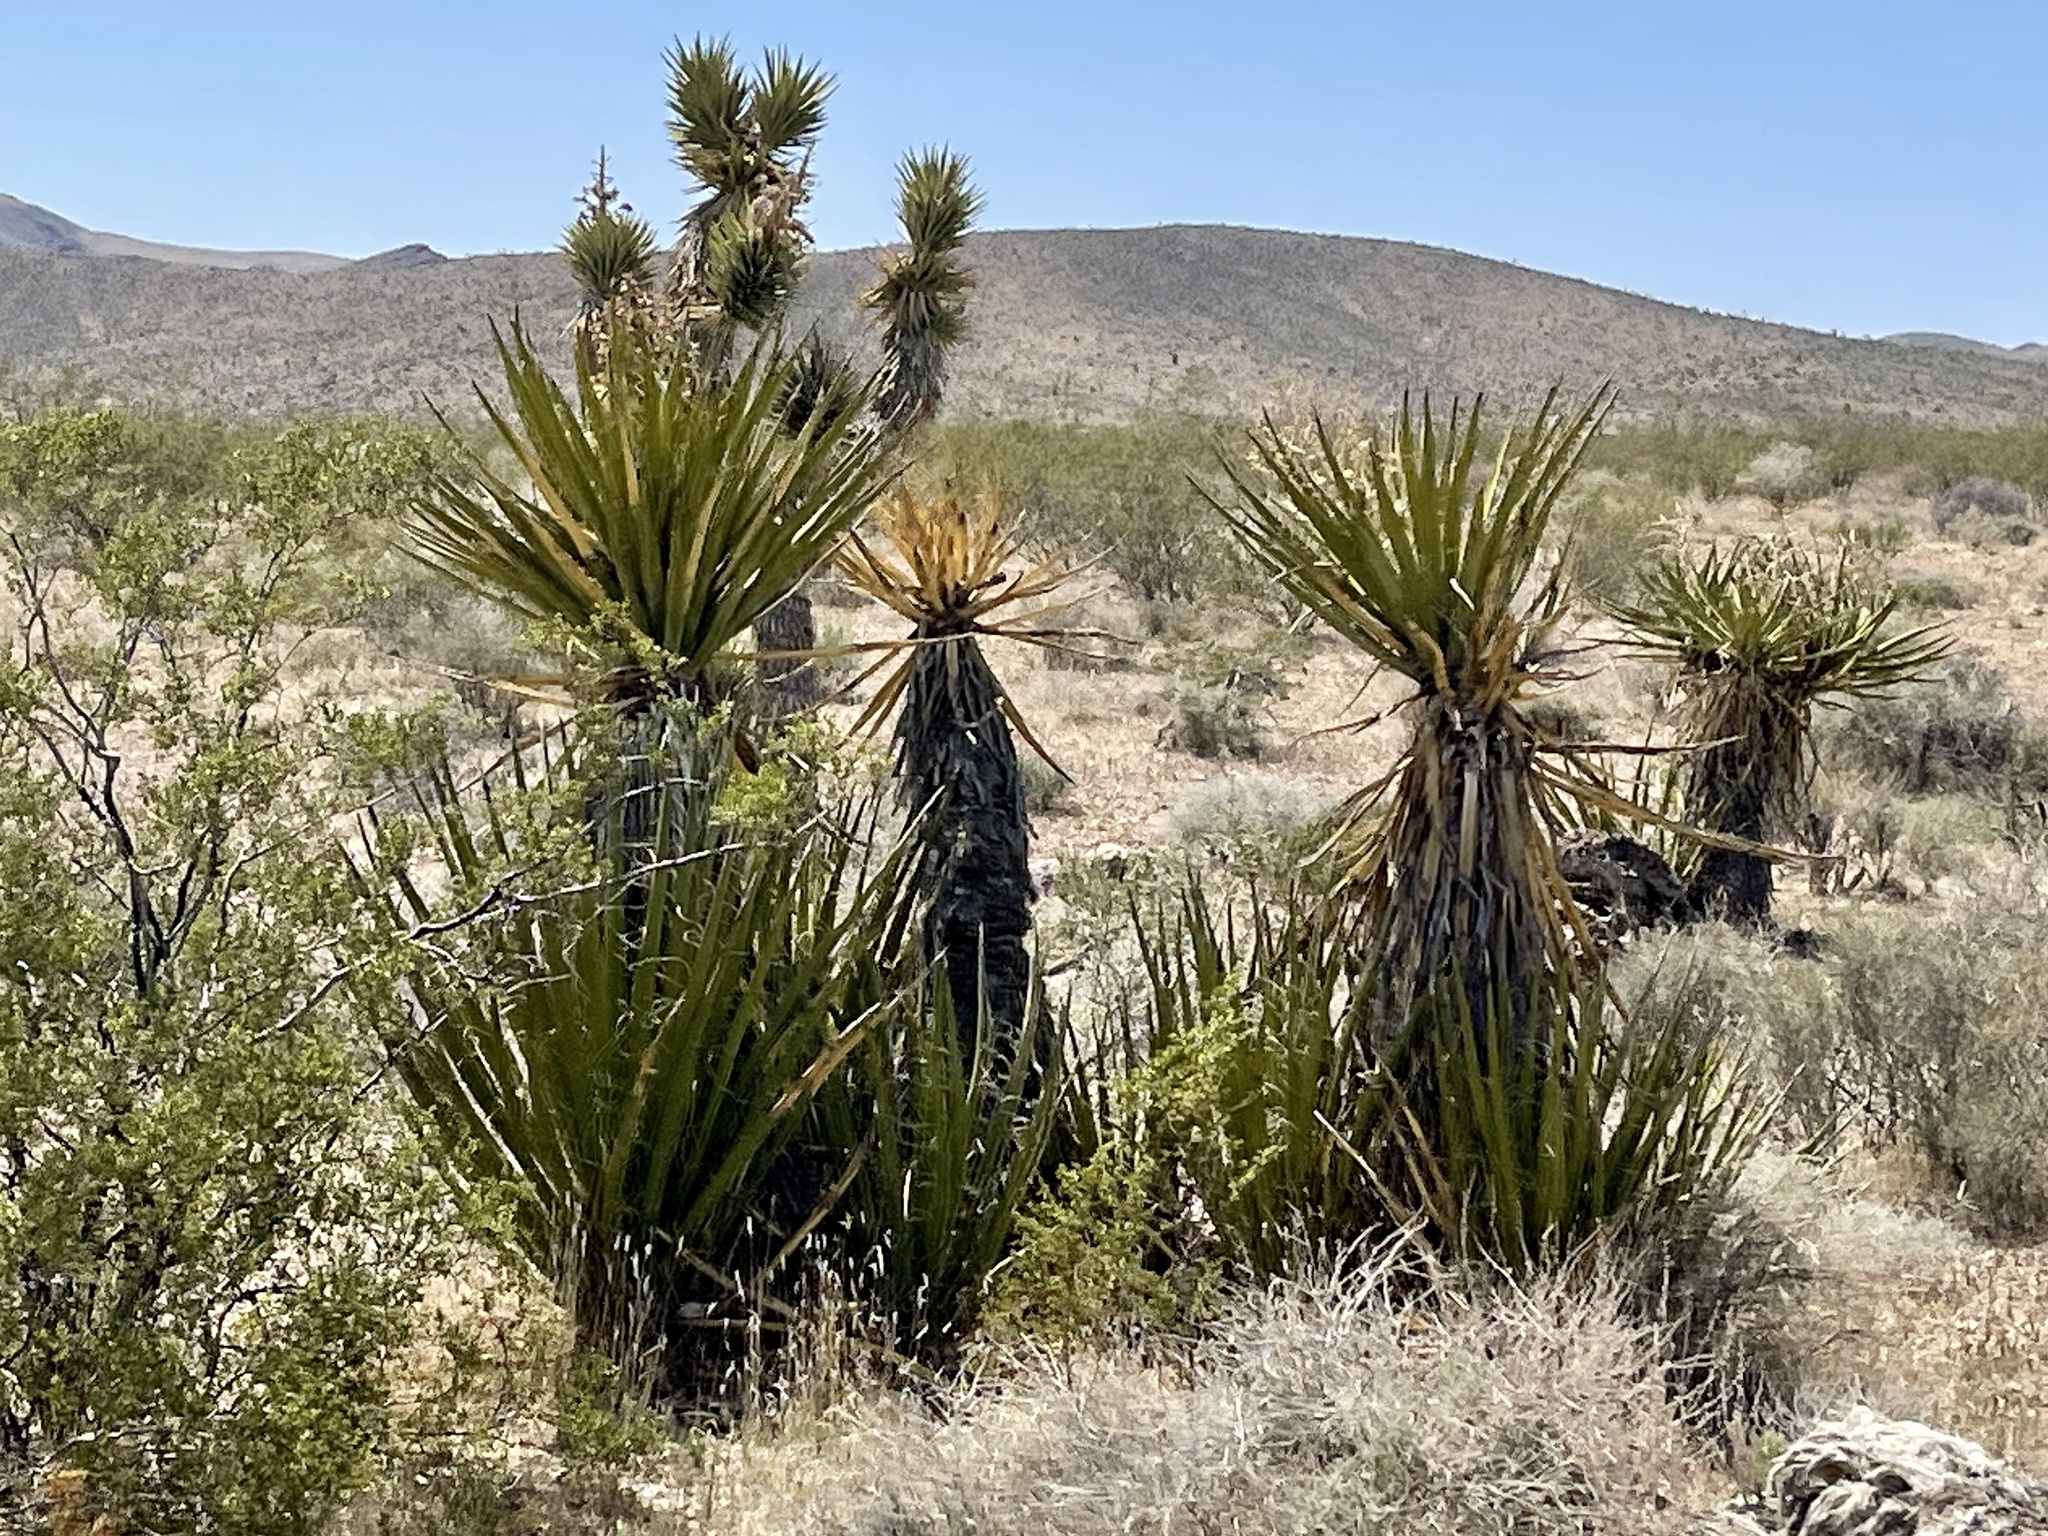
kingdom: Plantae
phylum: Tracheophyta
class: Liliopsida
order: Asparagales
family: Asparagaceae
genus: Yucca
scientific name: Yucca schidigera
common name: Mojave yucca
